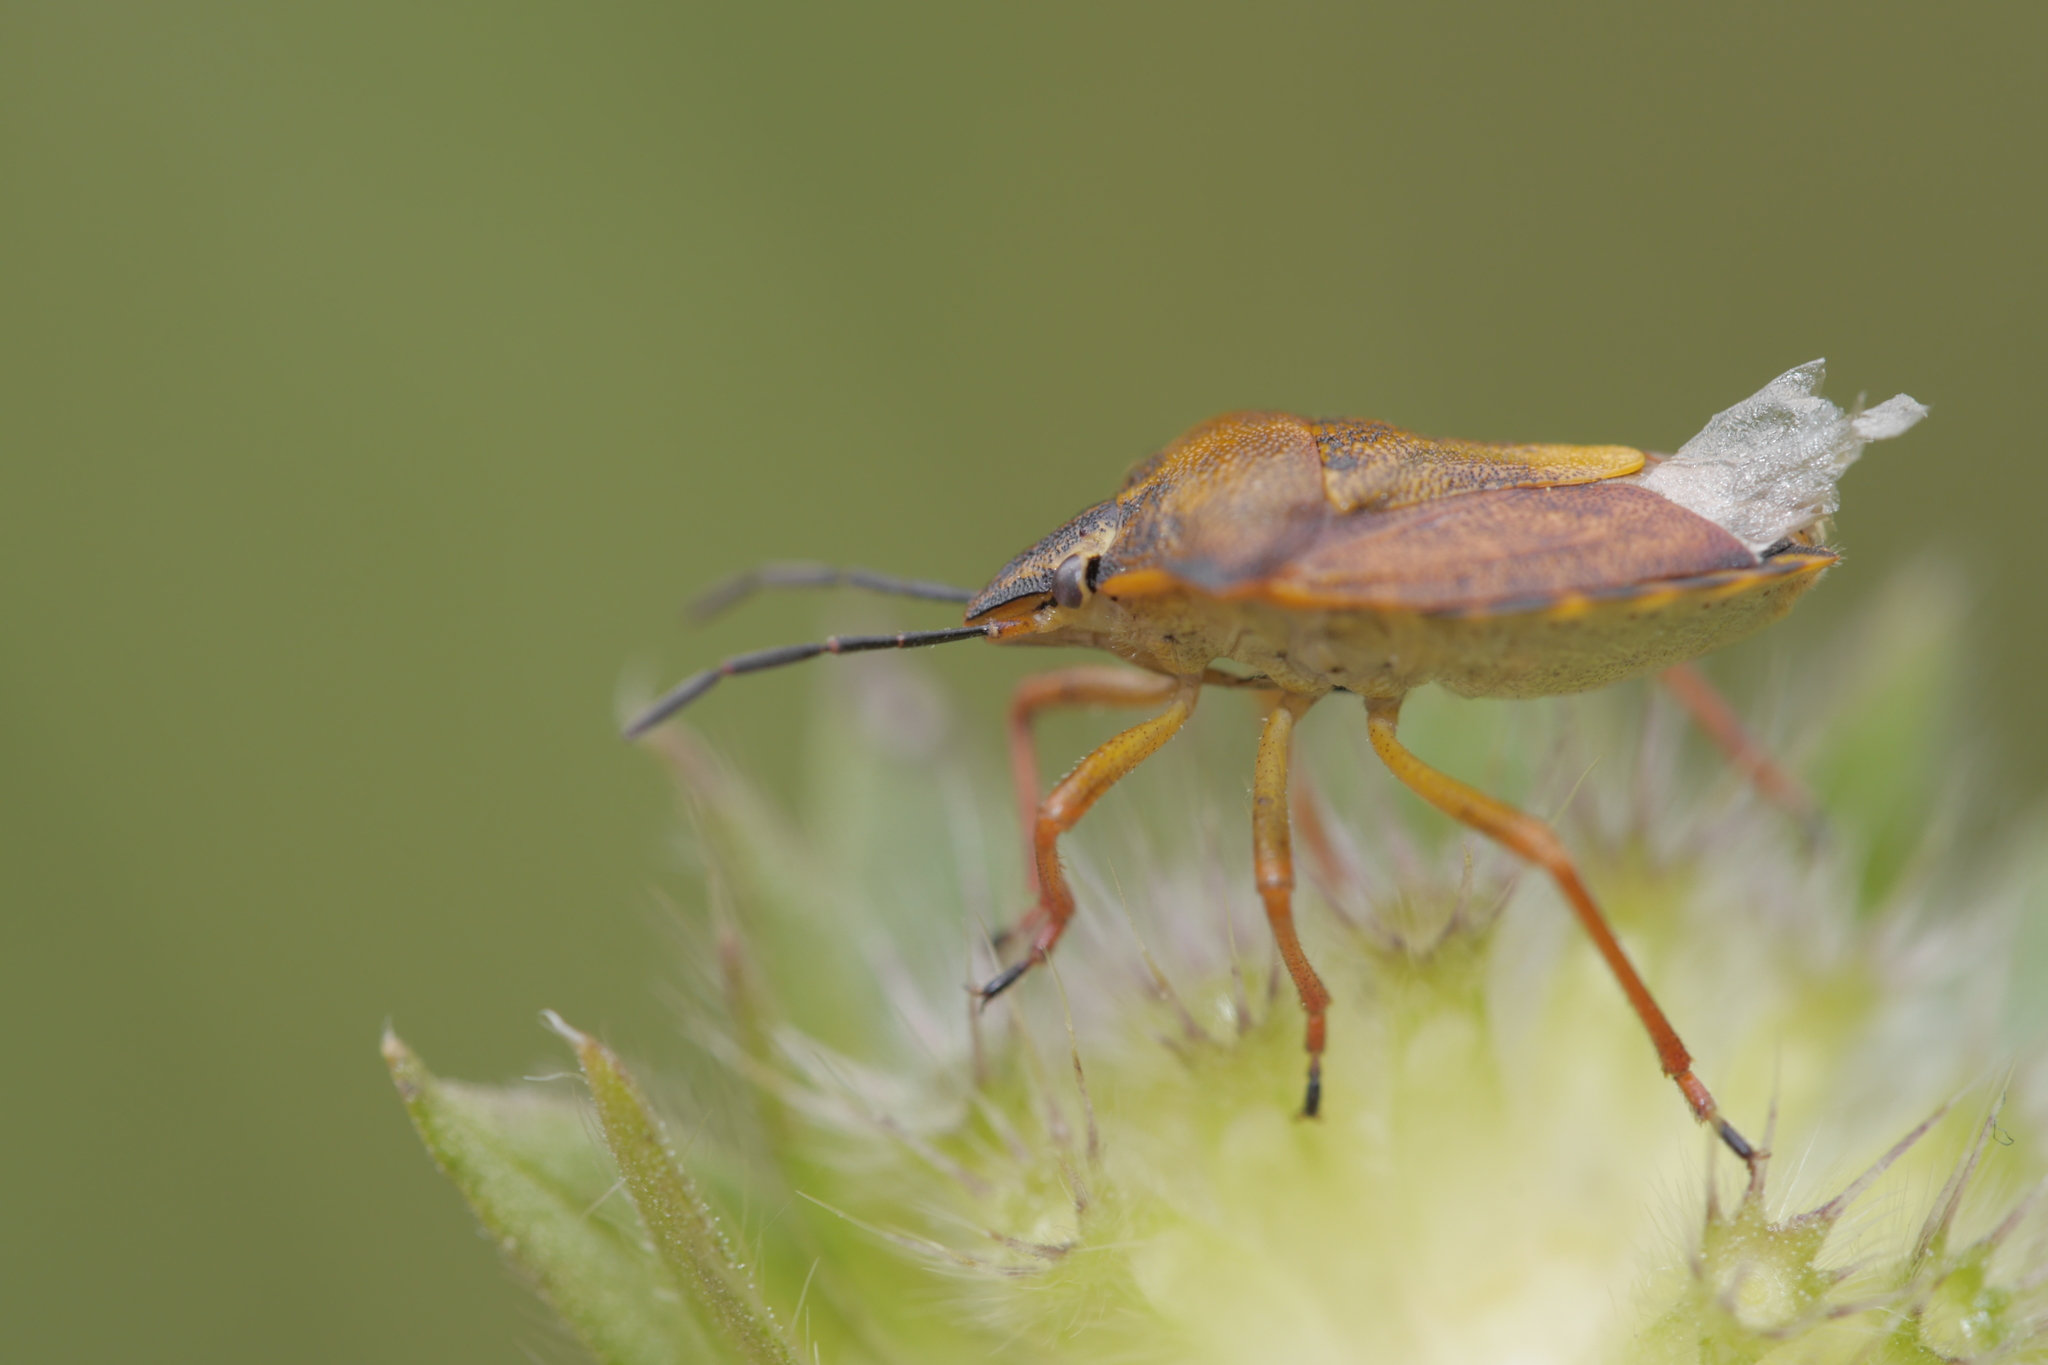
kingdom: Animalia
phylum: Arthropoda
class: Insecta
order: Hemiptera
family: Pentatomidae
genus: Carpocoris
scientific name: Carpocoris purpureipennis
